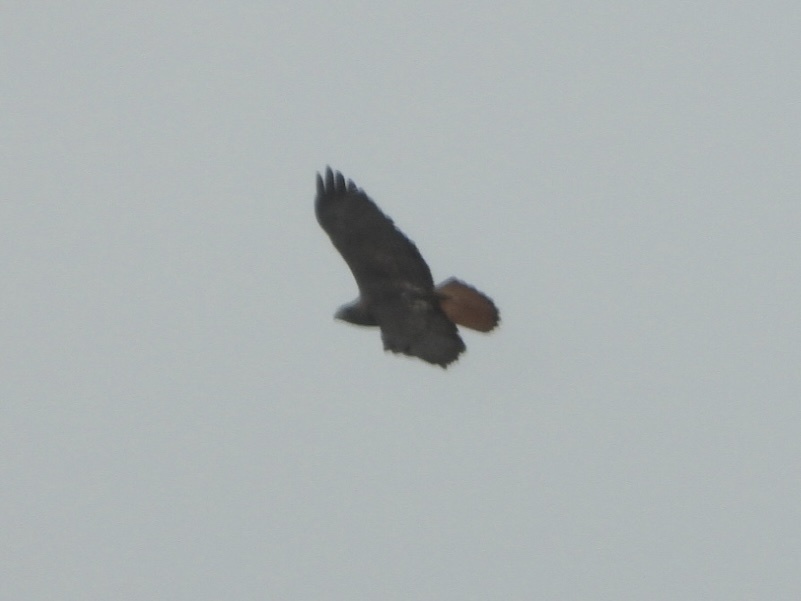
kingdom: Animalia
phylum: Chordata
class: Aves
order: Accipitriformes
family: Accipitridae
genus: Buteo
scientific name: Buteo jamaicensis
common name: Red-tailed hawk
